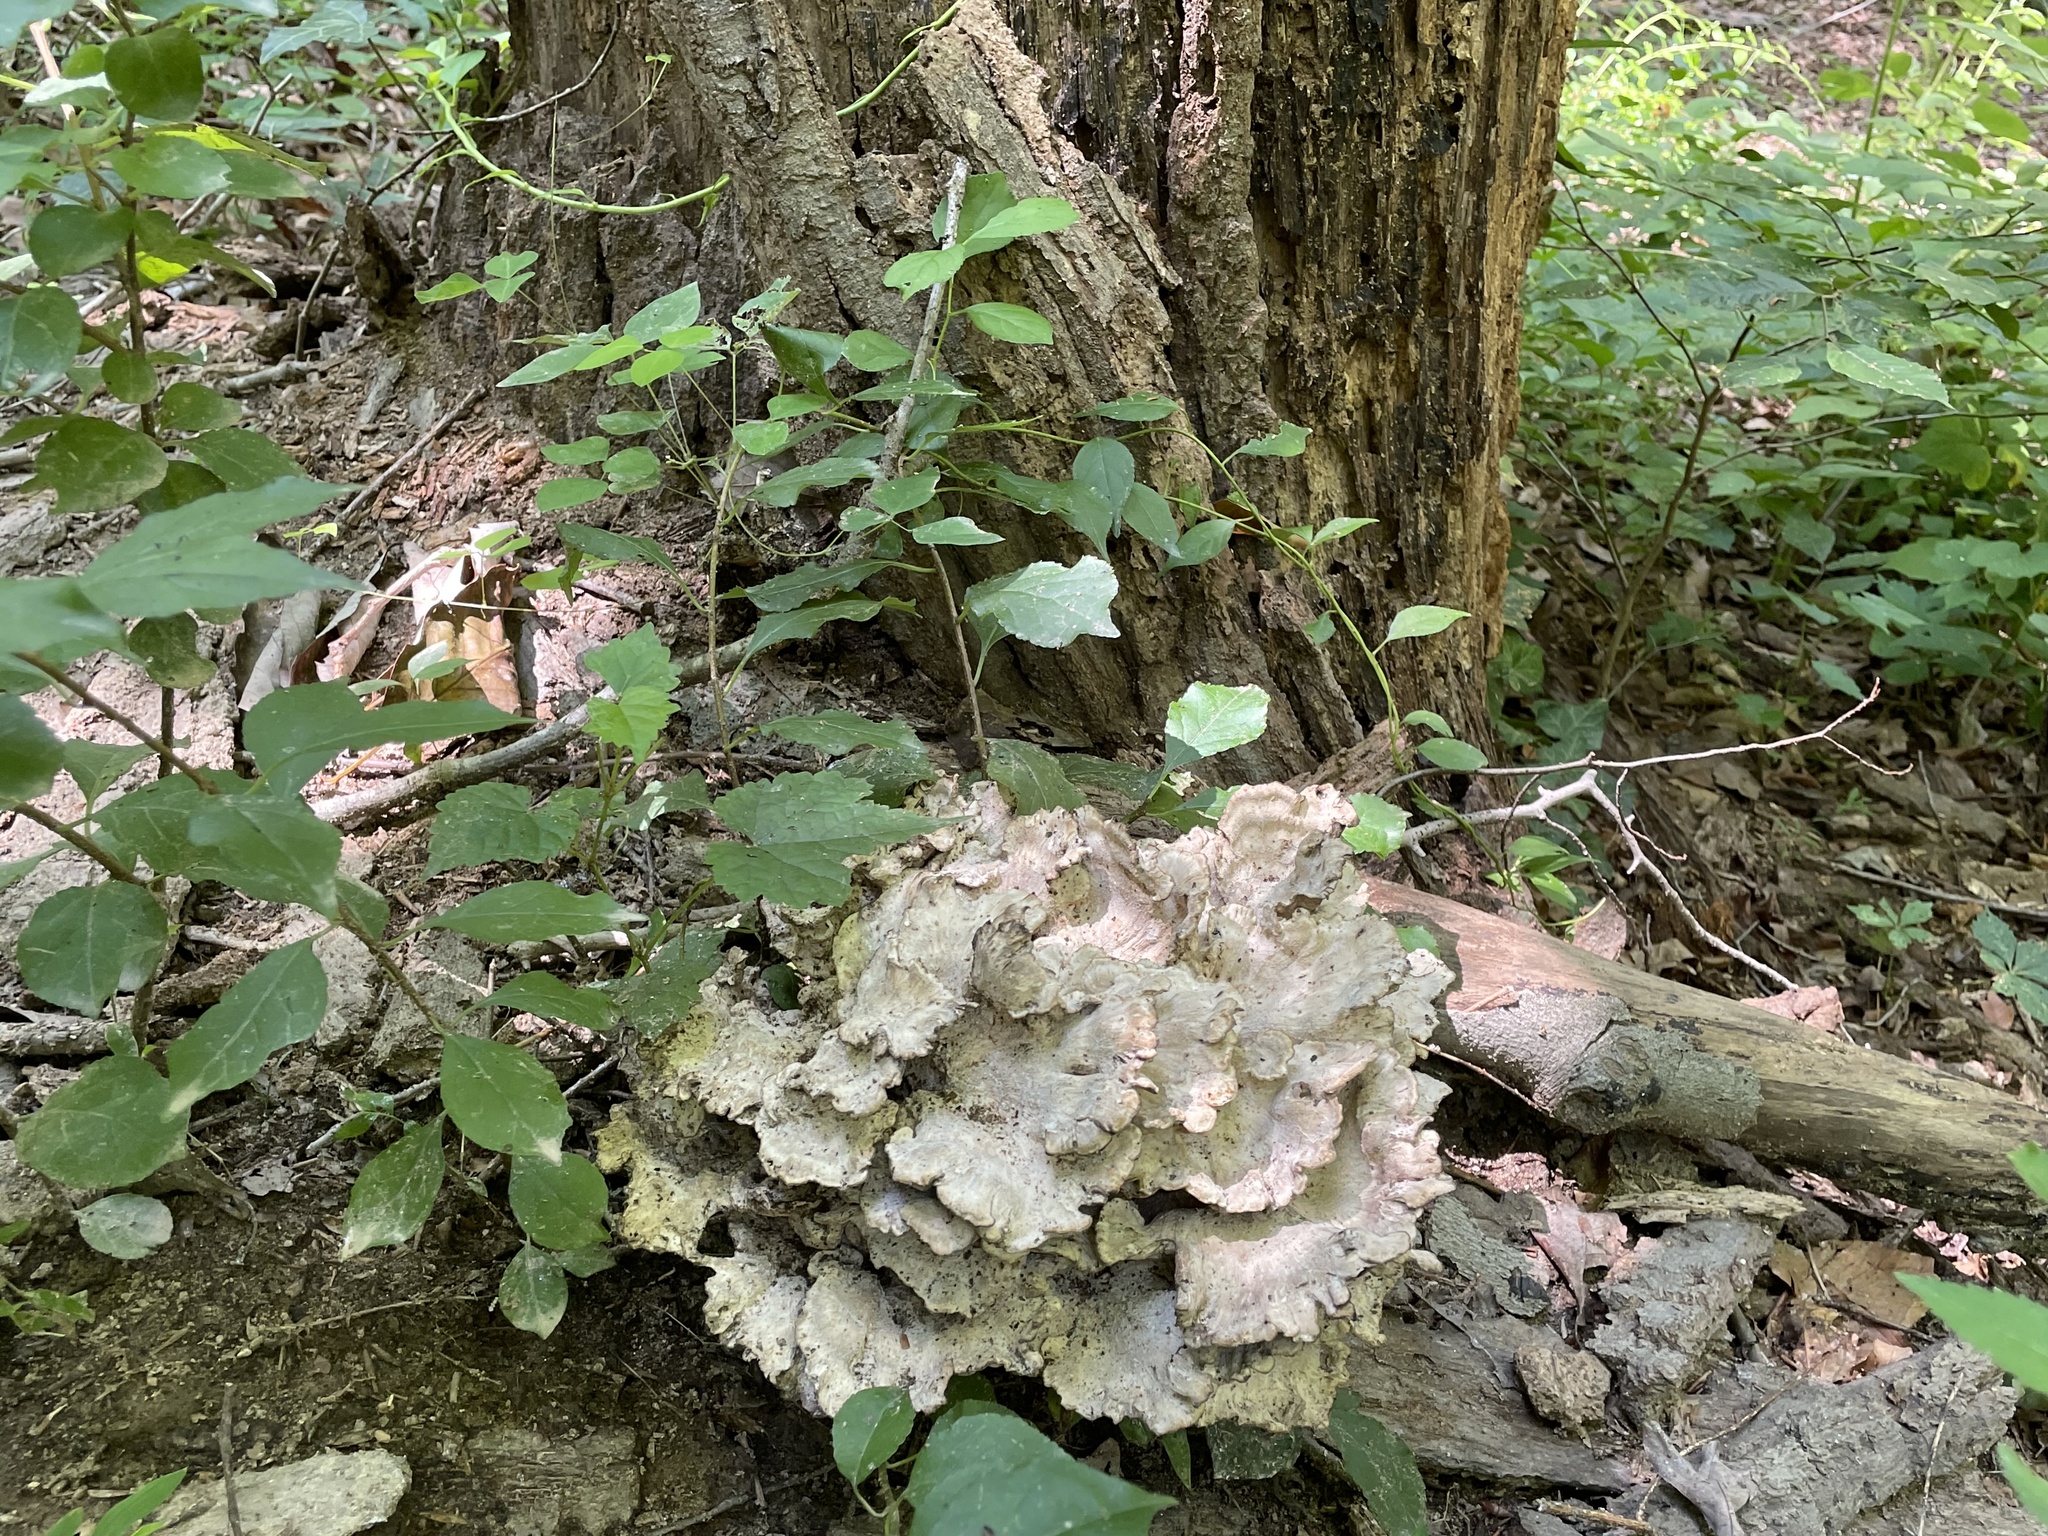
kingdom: Fungi
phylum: Basidiomycota
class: Agaricomycetes
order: Polyporales
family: Meripilaceae
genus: Meripilus
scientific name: Meripilus sumstinei
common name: Black-staining polypore
